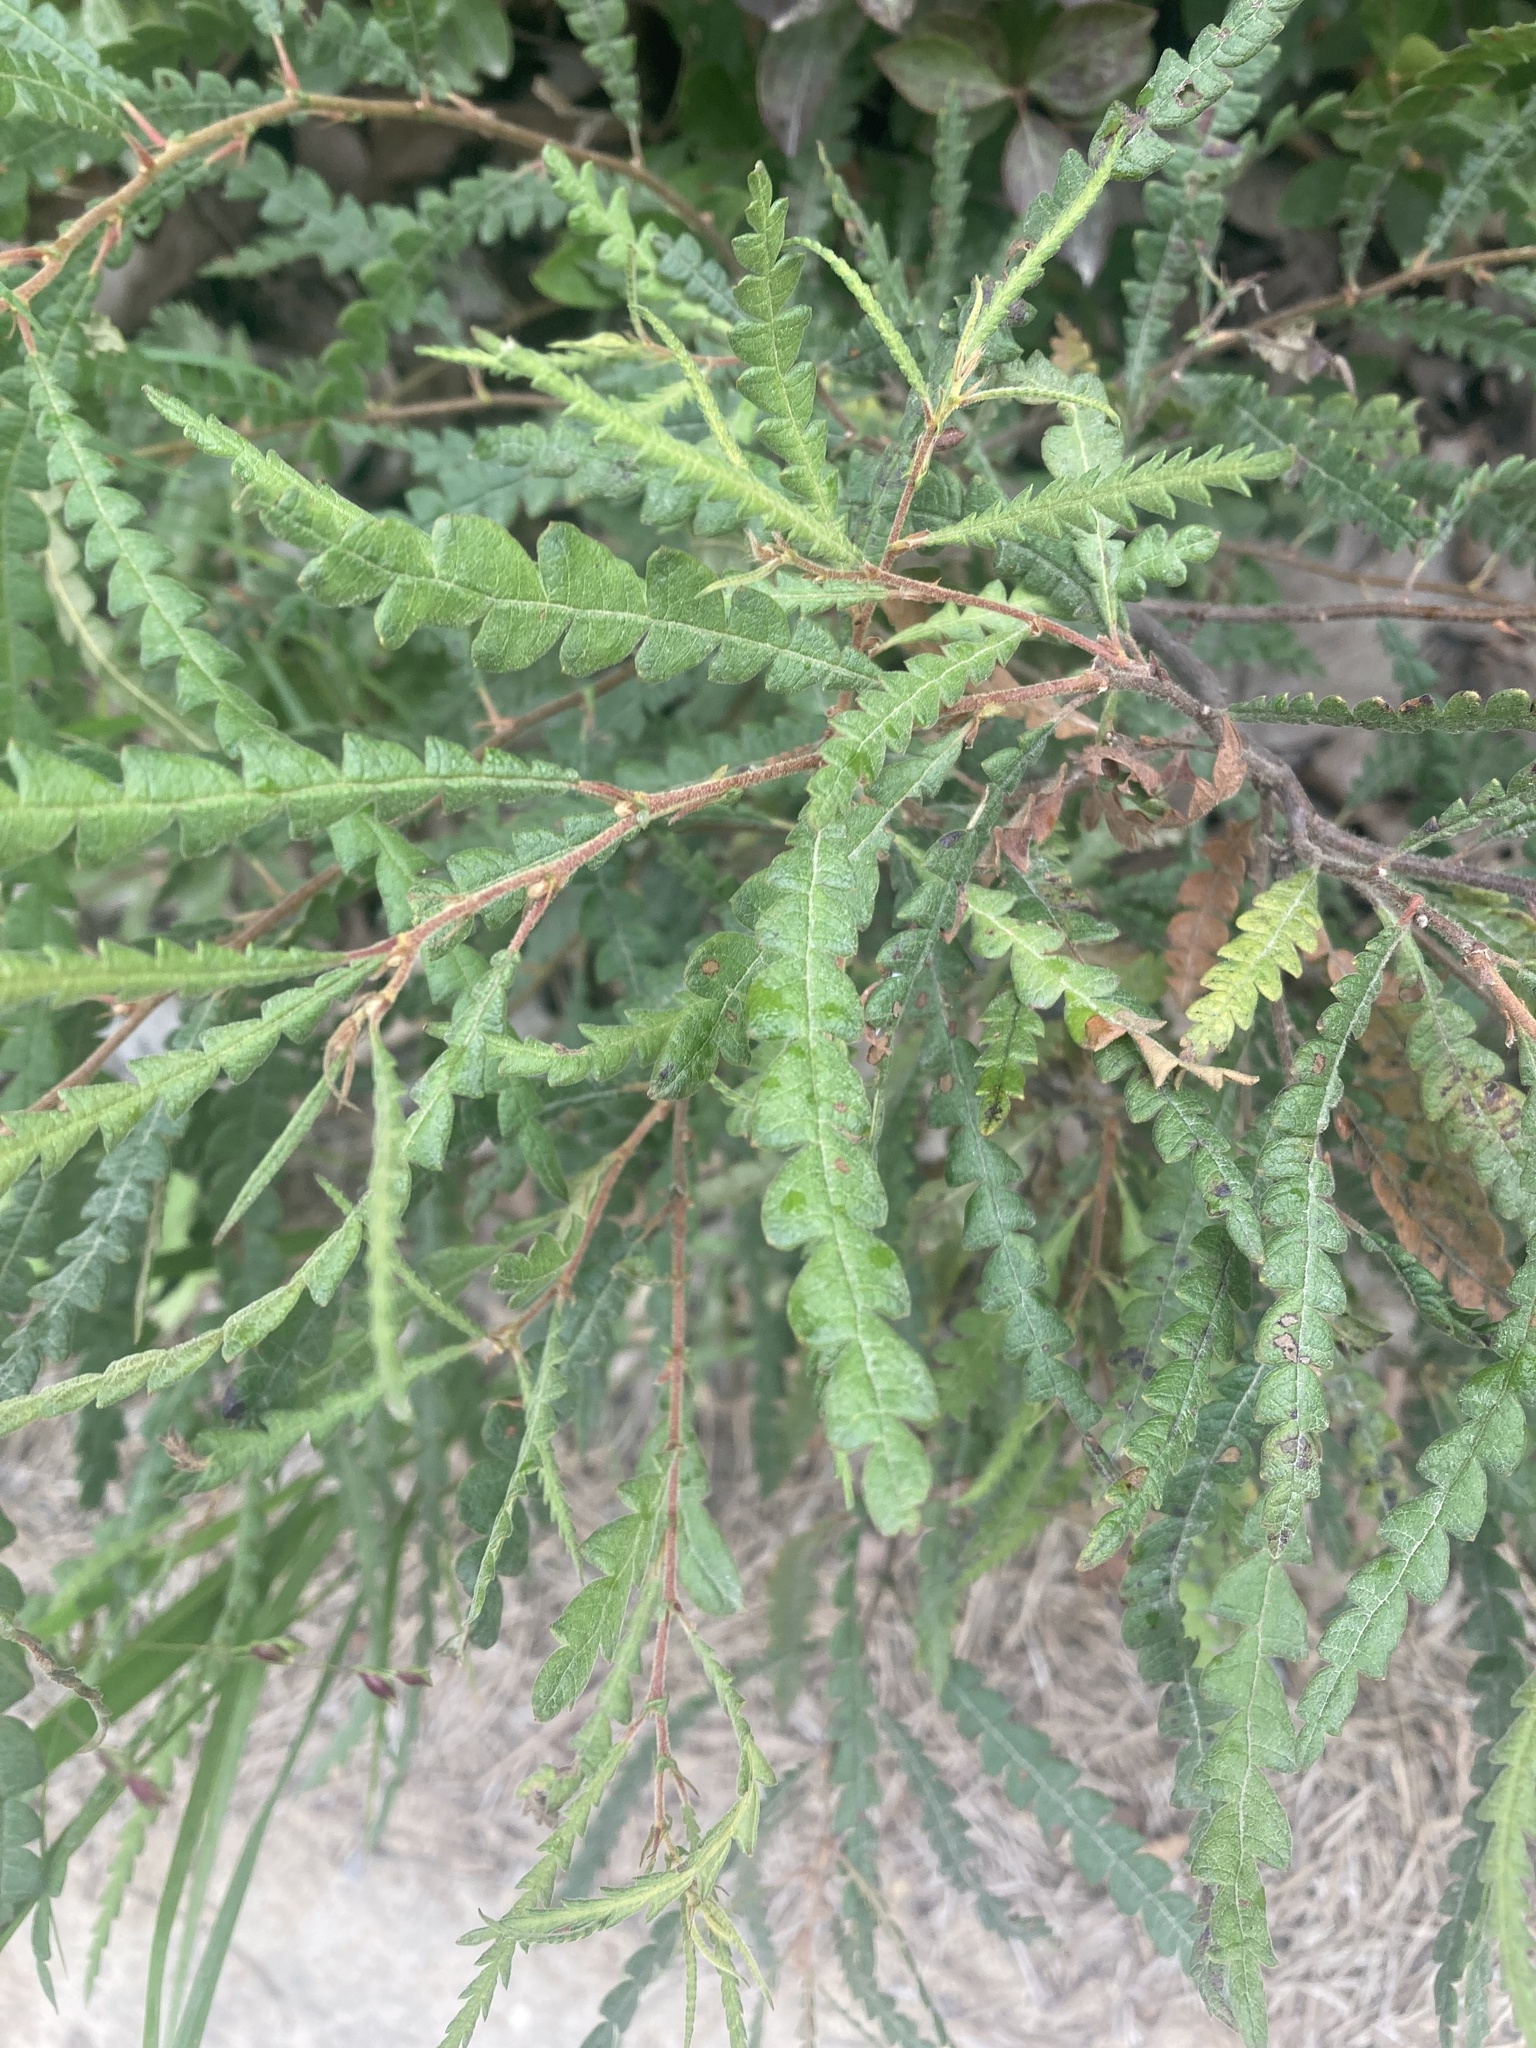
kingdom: Plantae
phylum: Tracheophyta
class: Magnoliopsida
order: Fagales
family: Myricaceae
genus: Comptonia
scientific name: Comptonia peregrina
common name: Sweet-fern
